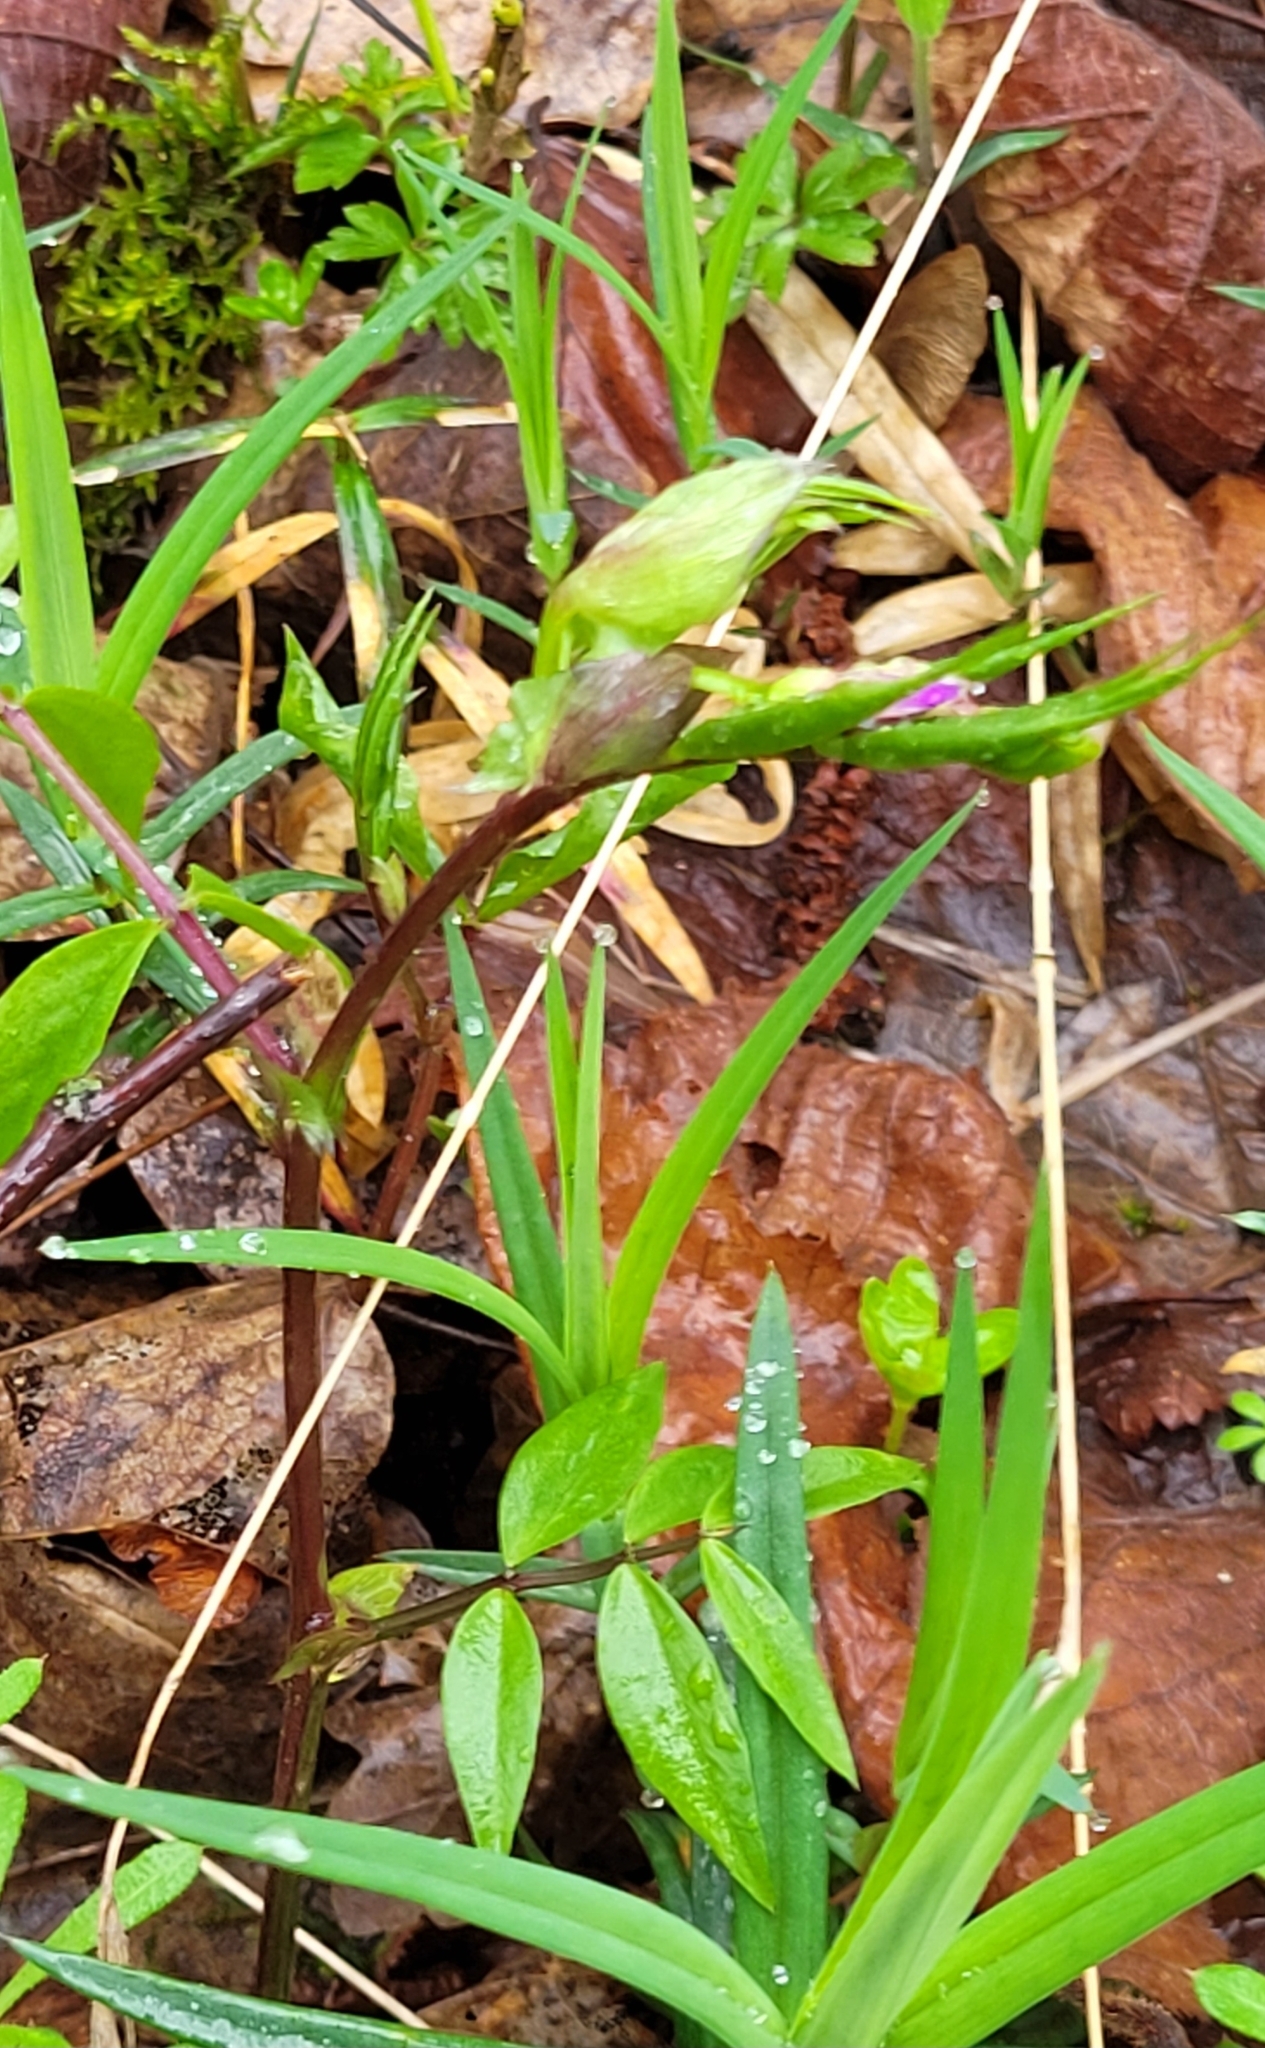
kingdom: Plantae
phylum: Tracheophyta
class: Magnoliopsida
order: Fabales
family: Fabaceae
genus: Lathyrus
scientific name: Lathyrus vernus
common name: Spring pea
